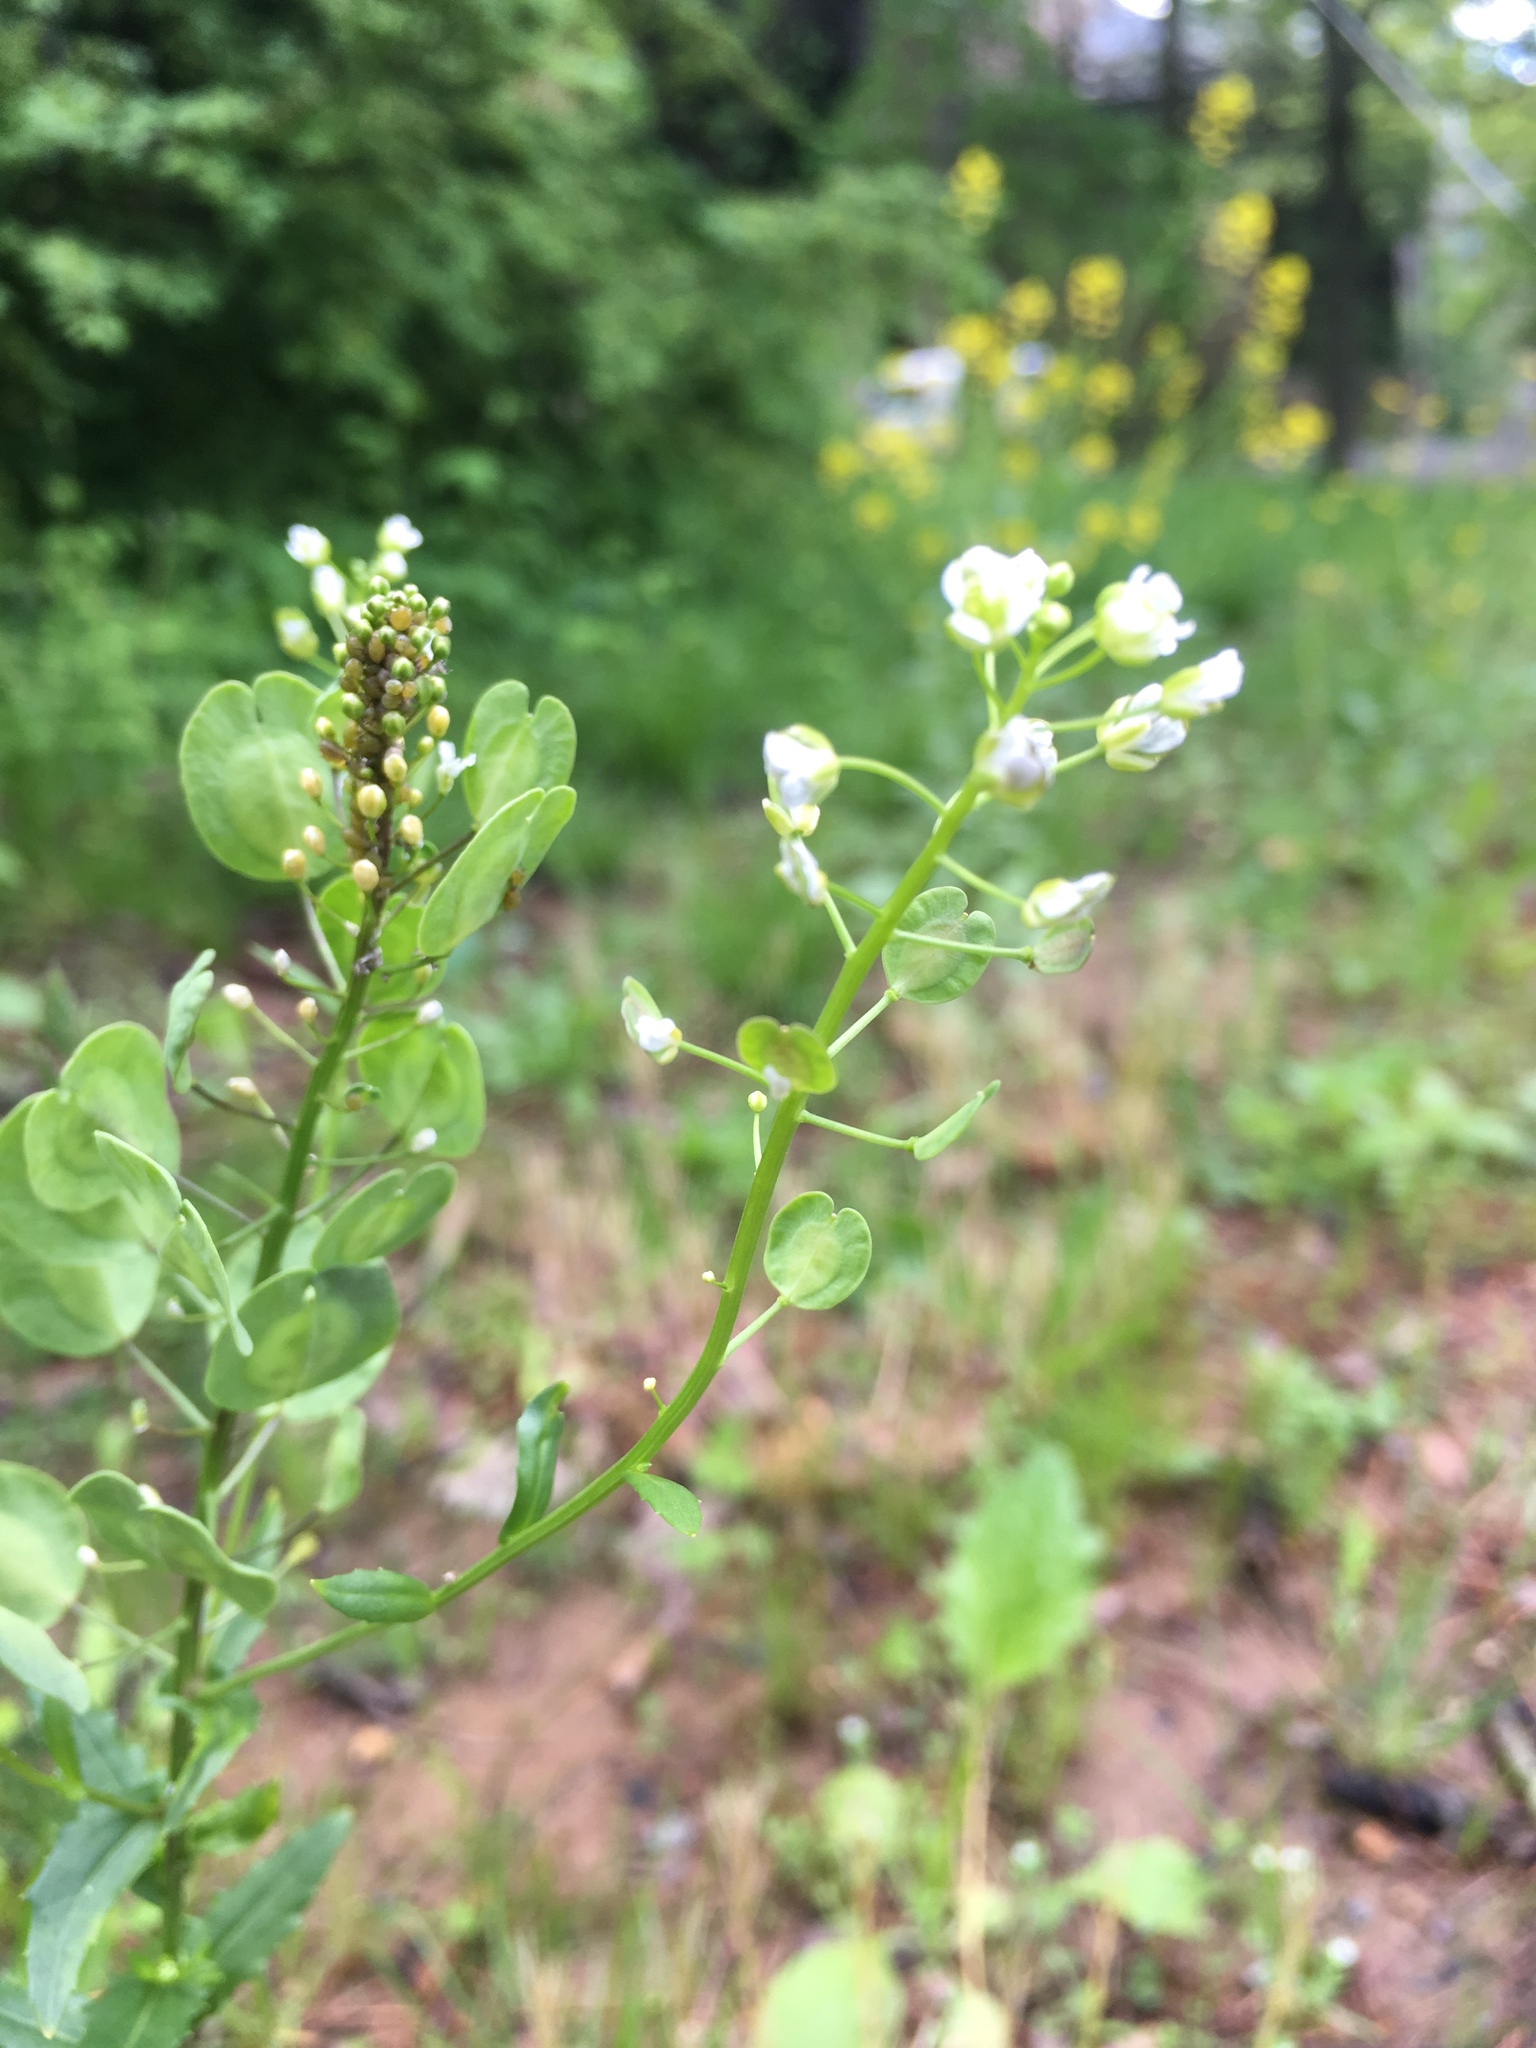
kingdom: Plantae
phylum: Tracheophyta
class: Magnoliopsida
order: Brassicales
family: Brassicaceae
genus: Thlaspi
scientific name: Thlaspi arvense
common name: Field pennycress
